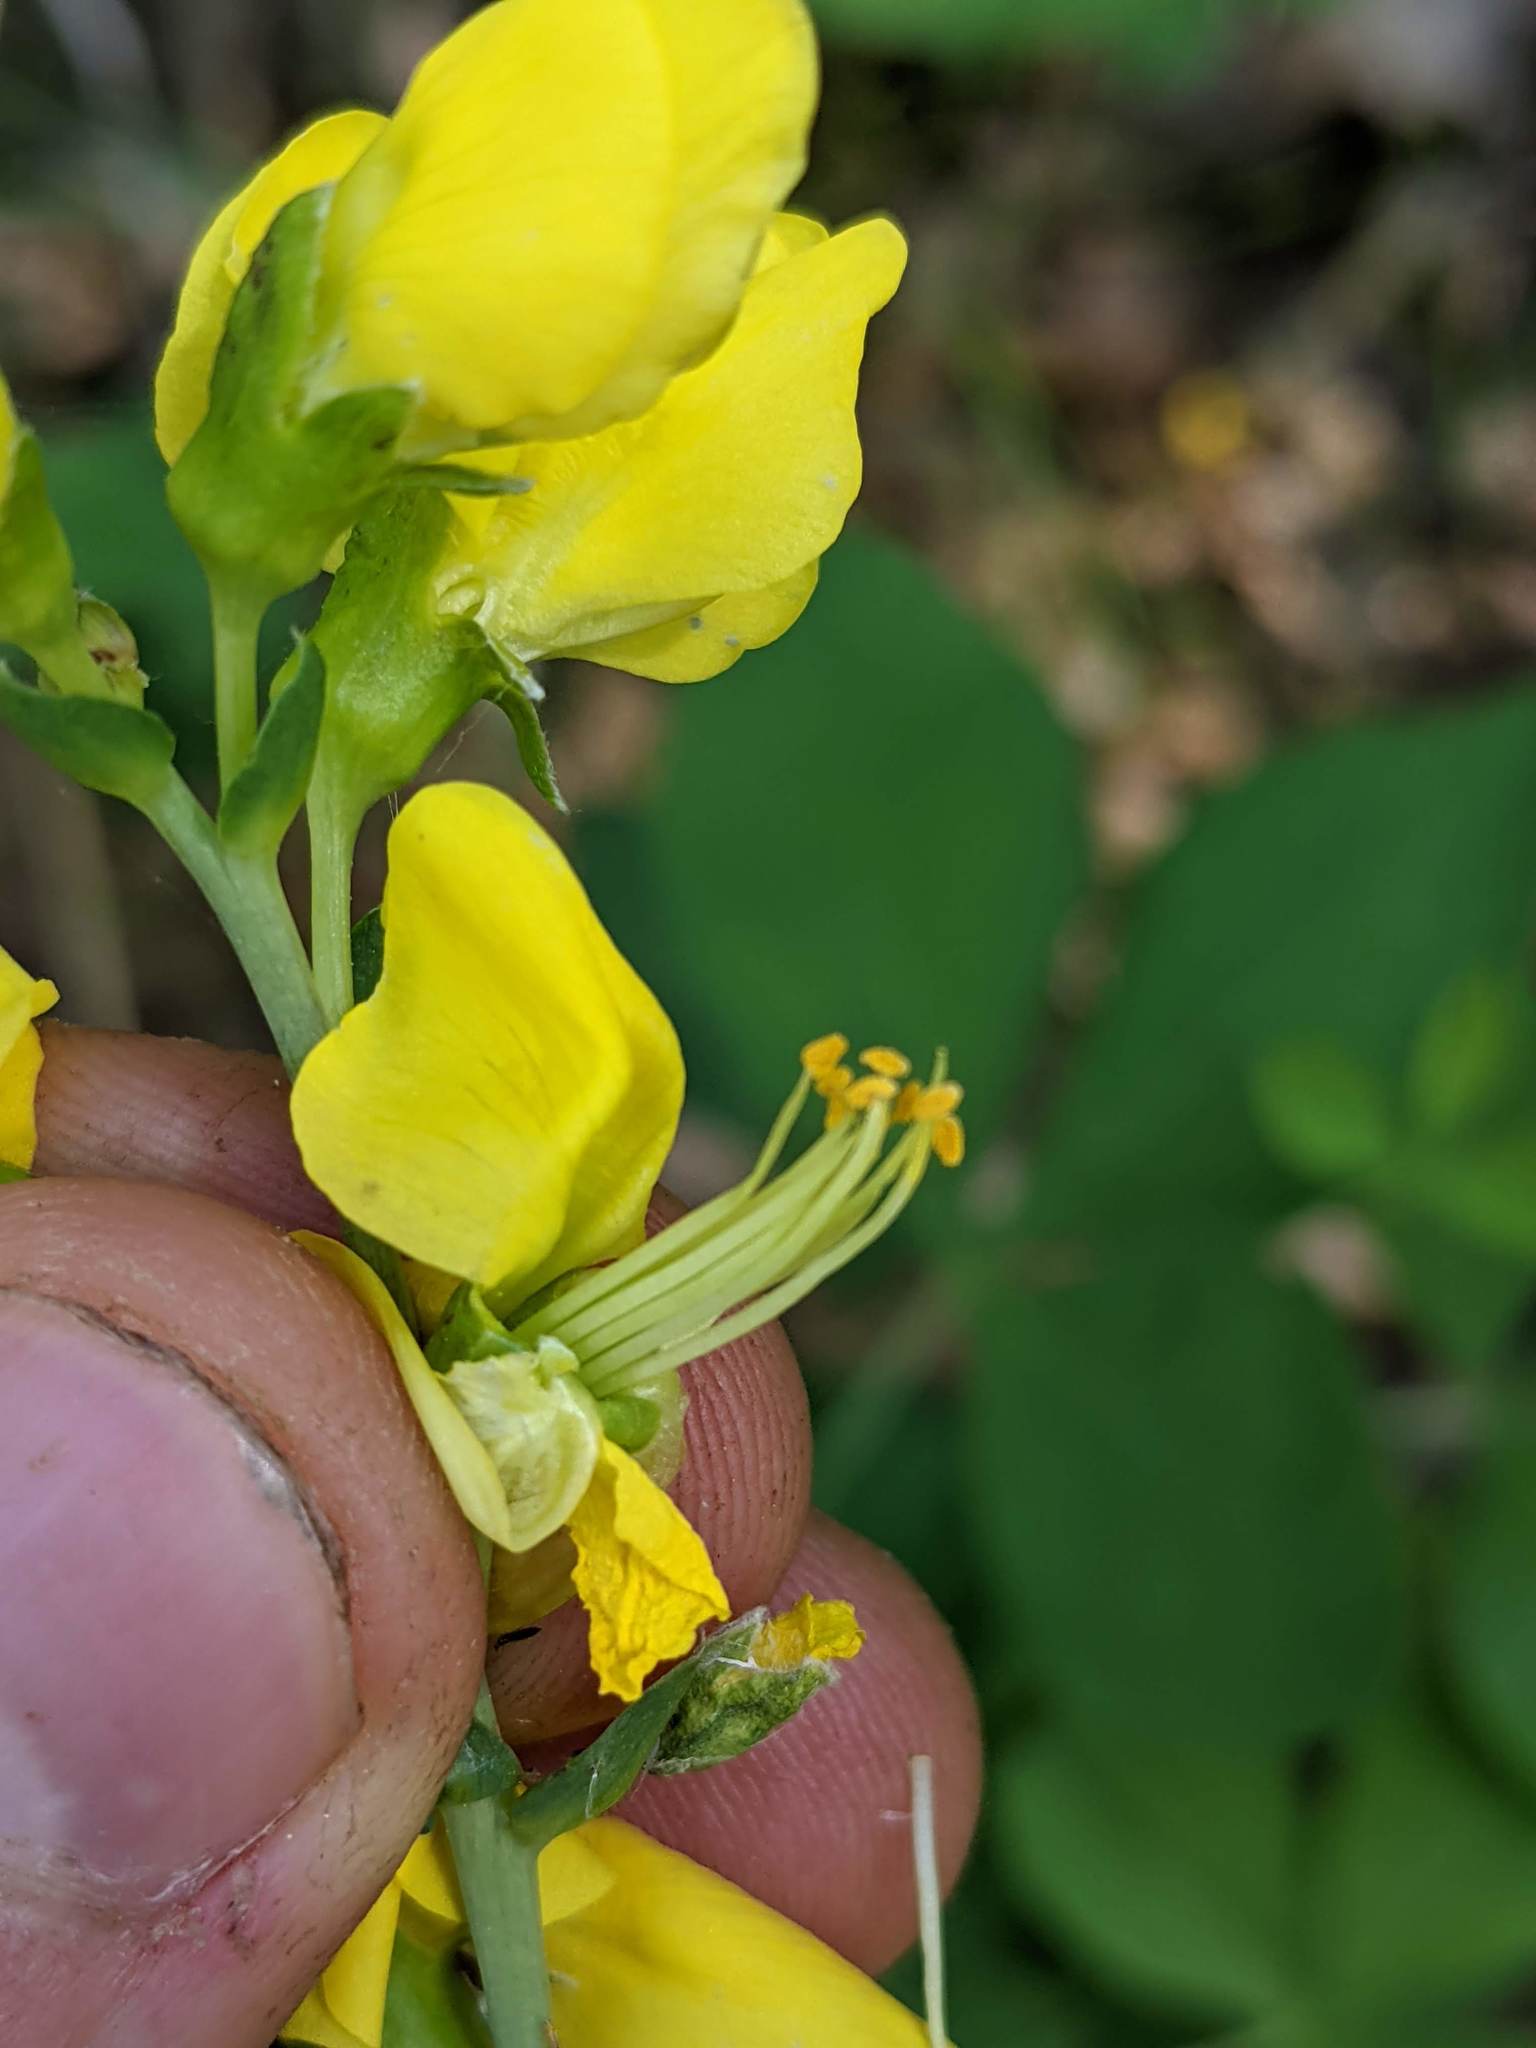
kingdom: Plantae
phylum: Tracheophyta
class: Magnoliopsida
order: Fabales
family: Fabaceae
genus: Thermopsis
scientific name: Thermopsis gracilis
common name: Slender golden-banner
